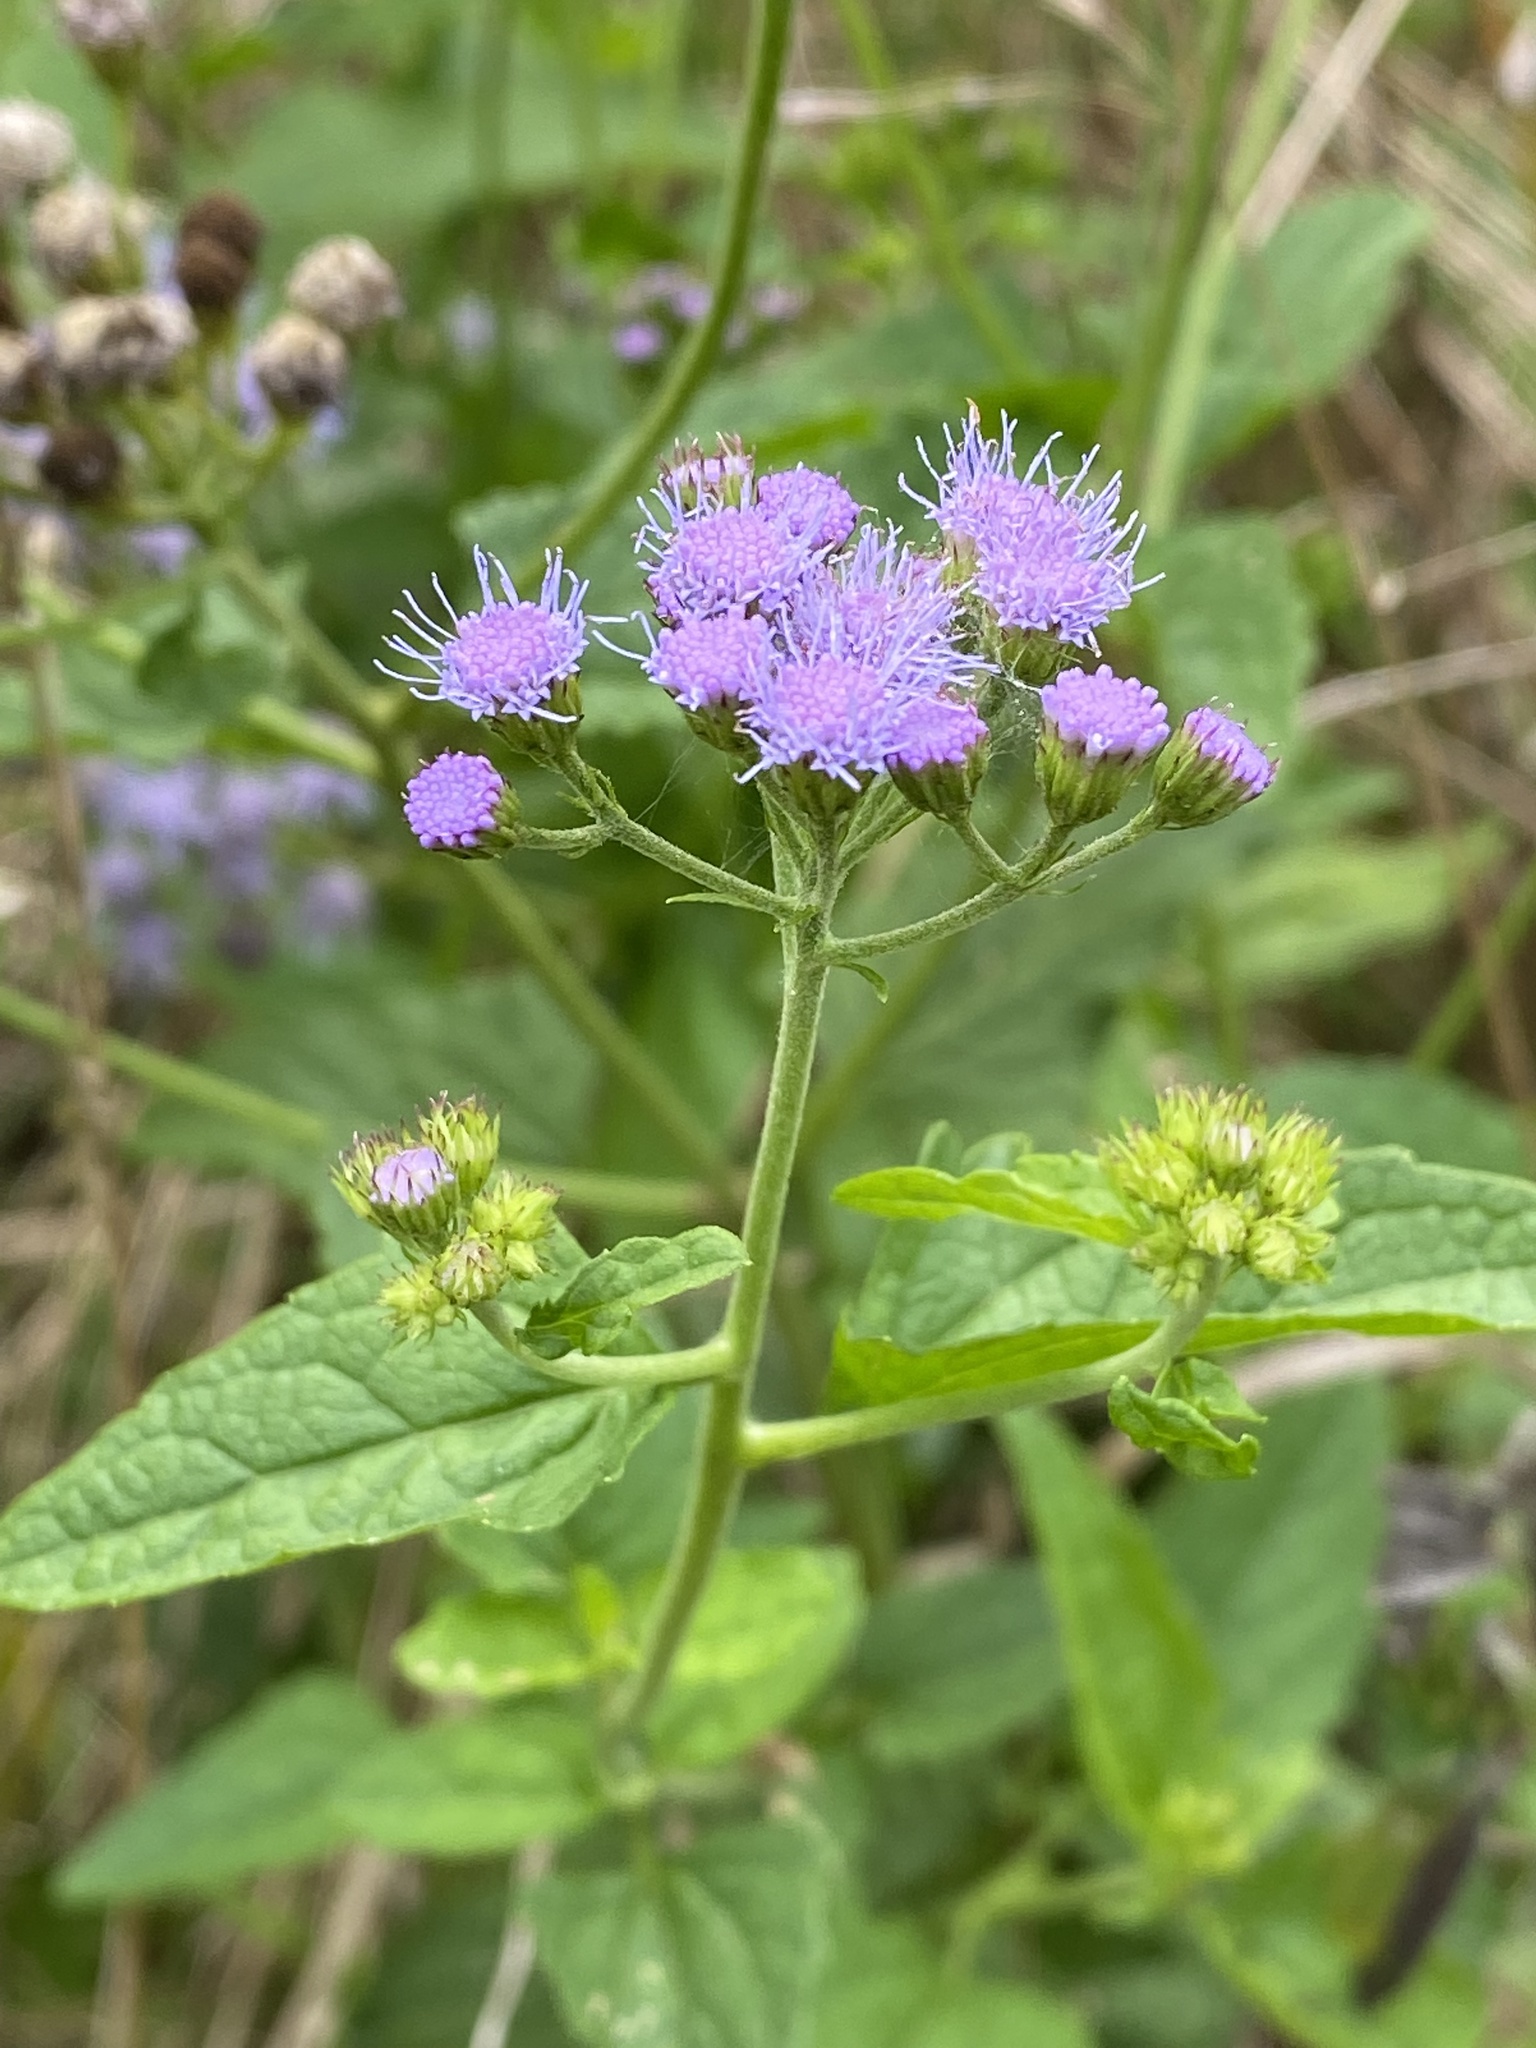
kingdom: Plantae
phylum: Tracheophyta
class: Magnoliopsida
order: Asterales
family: Asteraceae
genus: Conoclinium
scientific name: Conoclinium coelestinum
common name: Blue mistflower
